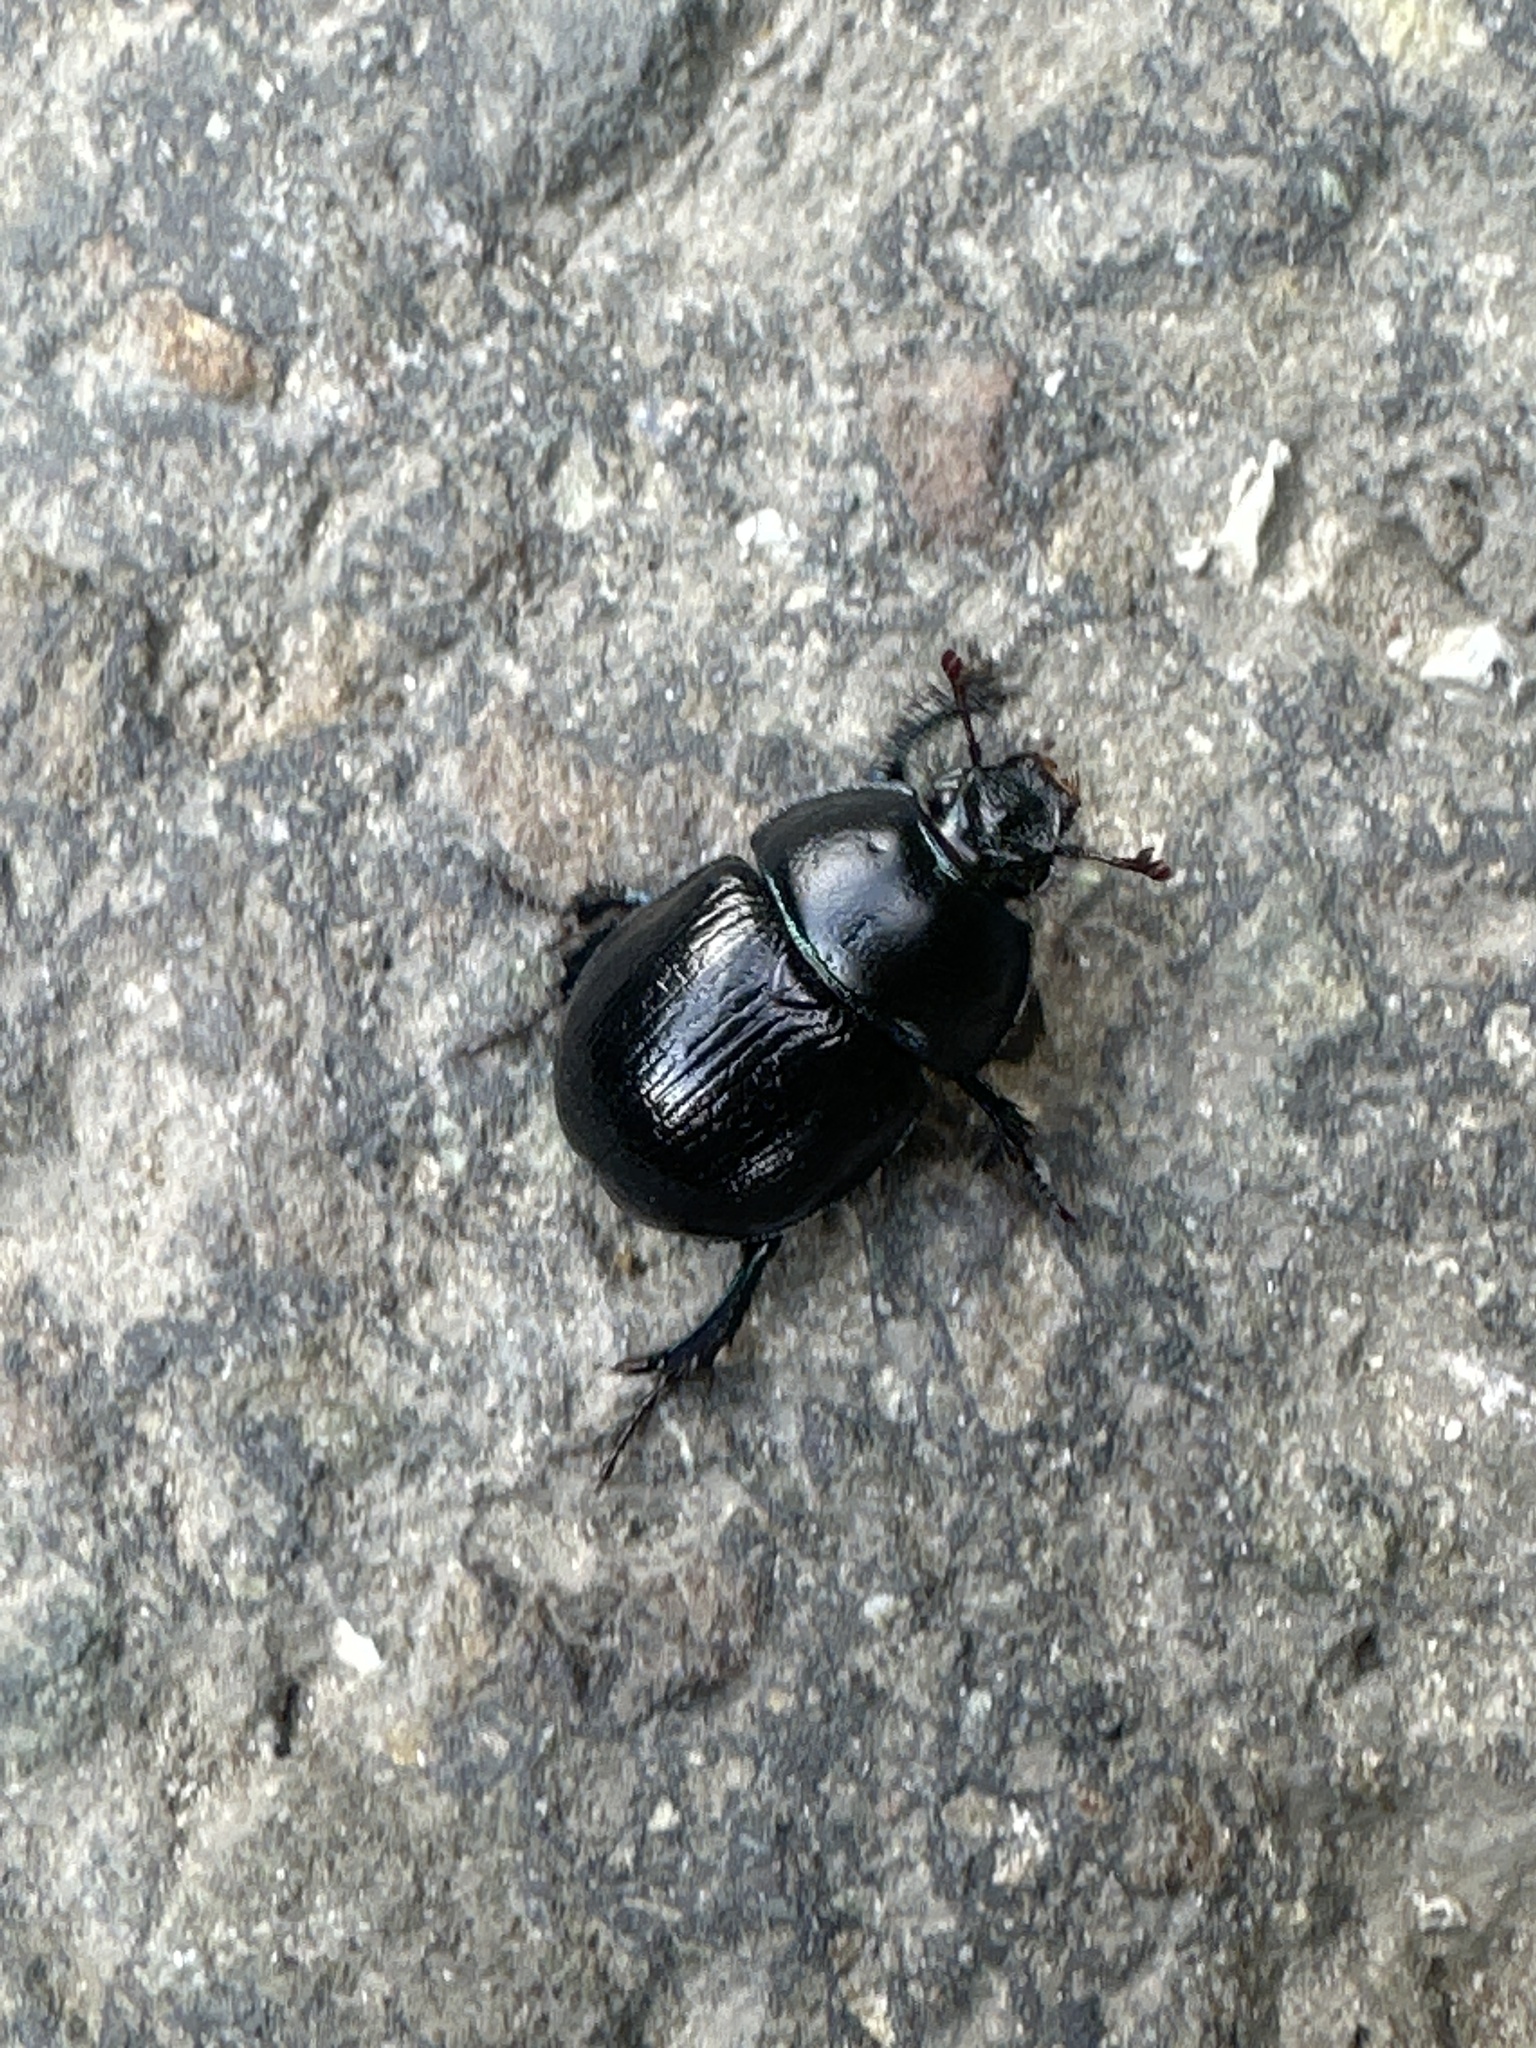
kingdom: Animalia
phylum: Arthropoda
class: Insecta
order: Coleoptera
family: Geotrupidae
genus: Anoplotrupes
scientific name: Anoplotrupes stercorosus
